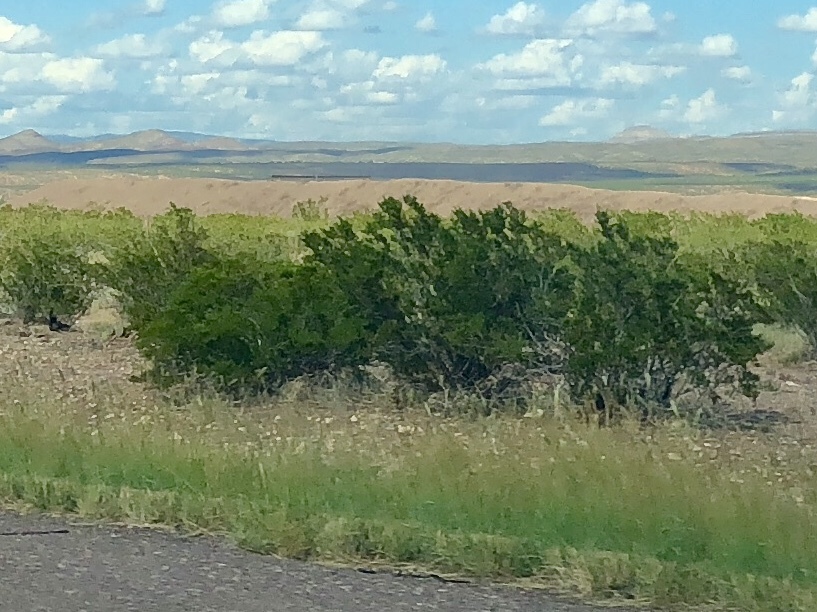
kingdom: Plantae
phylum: Tracheophyta
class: Magnoliopsida
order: Zygophyllales
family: Zygophyllaceae
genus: Larrea
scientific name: Larrea tridentata
